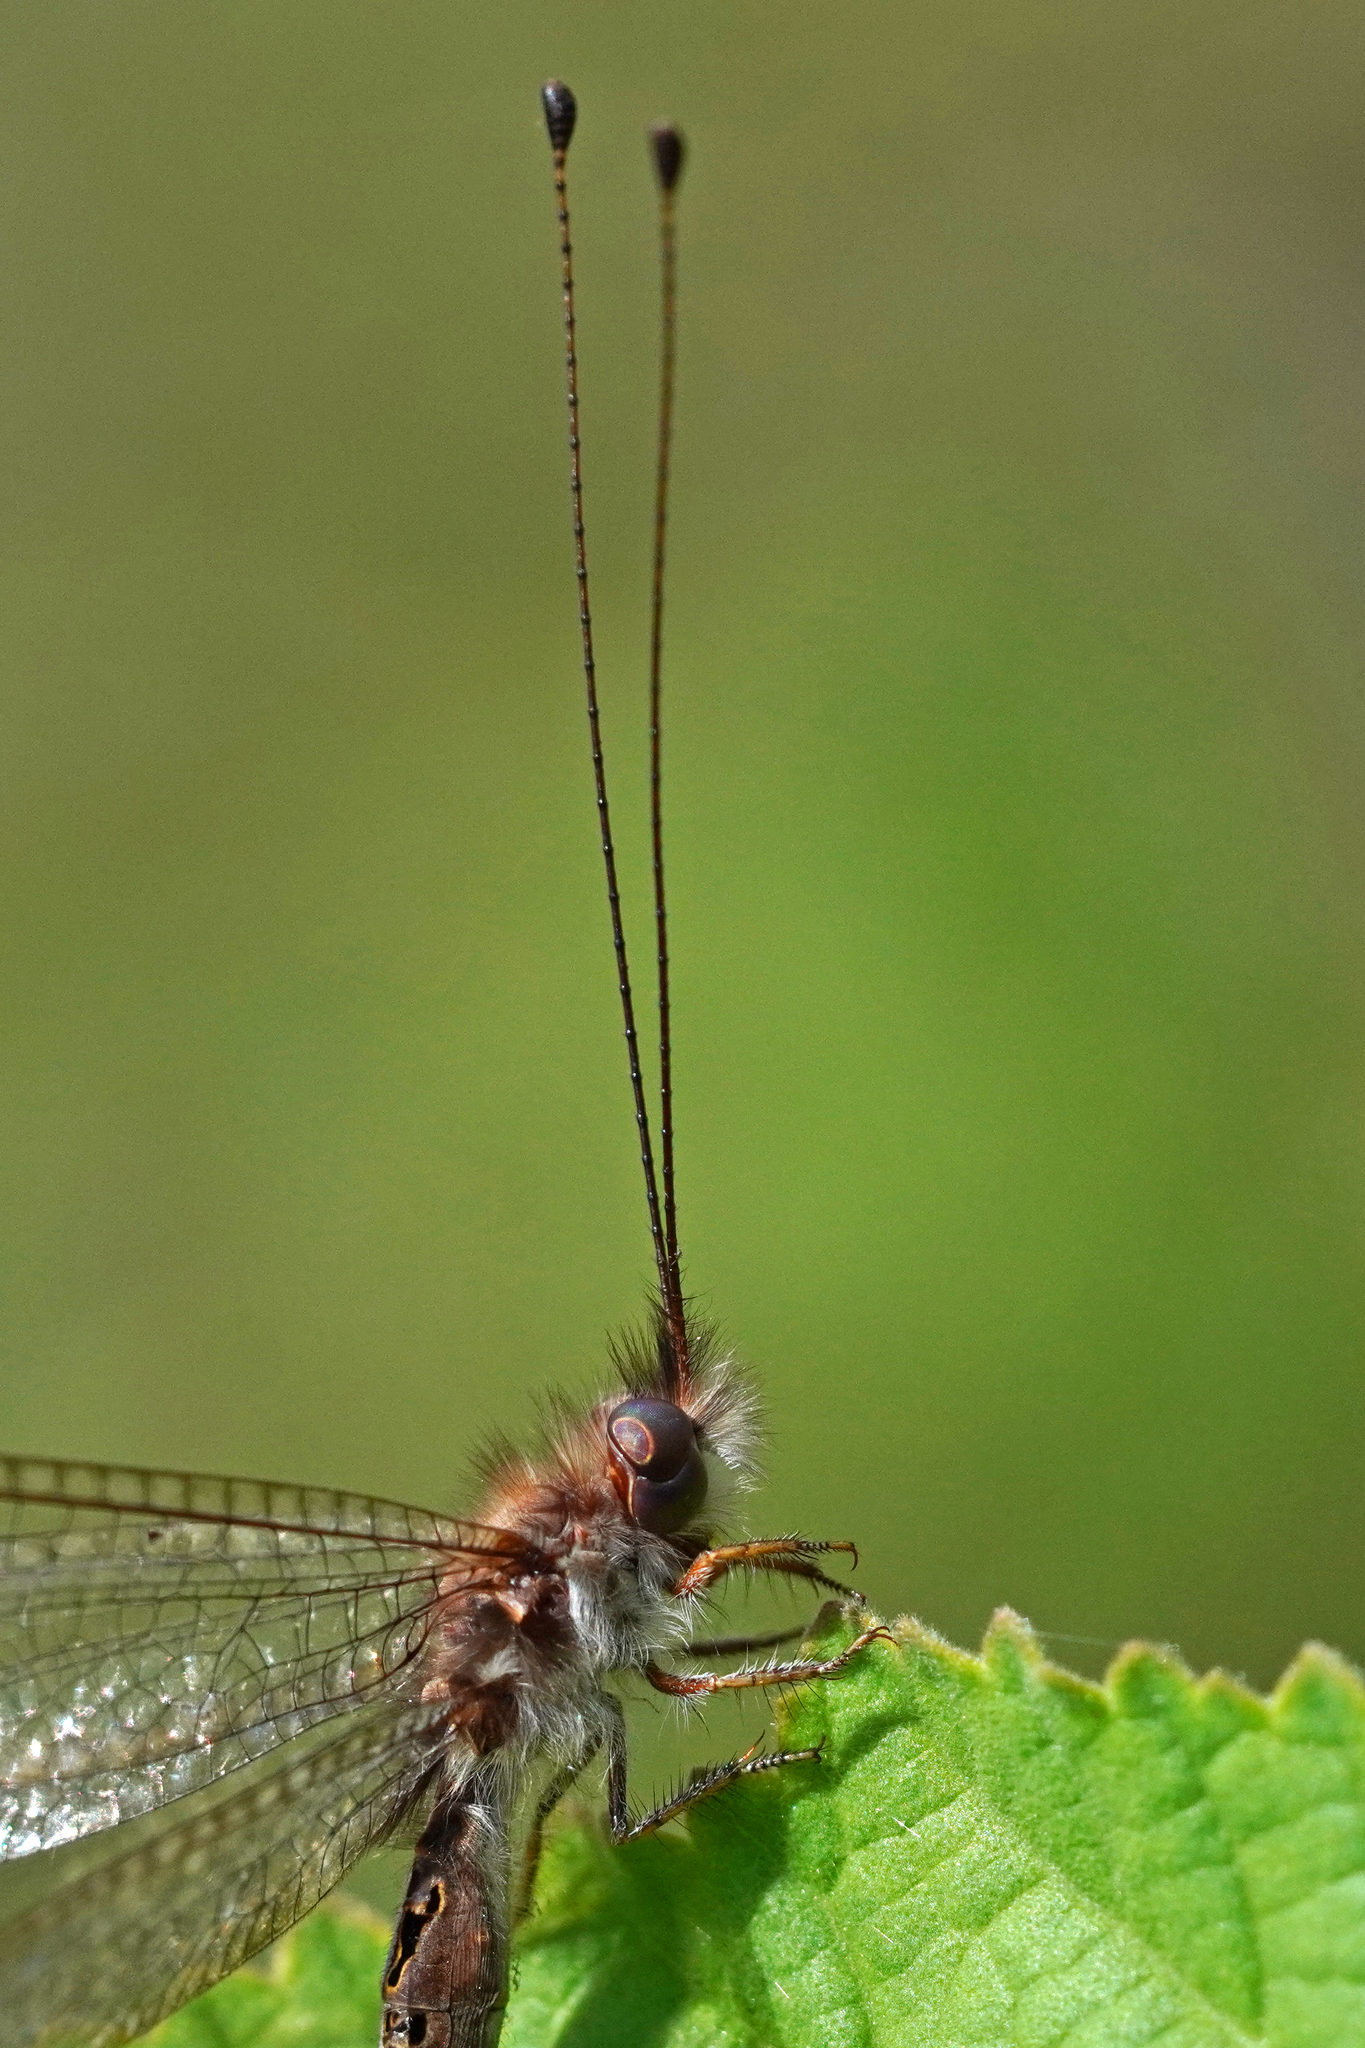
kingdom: Animalia
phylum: Arthropoda
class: Insecta
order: Neuroptera
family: Ascalaphidae
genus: Ululodes
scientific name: Ululodes macleayanus
